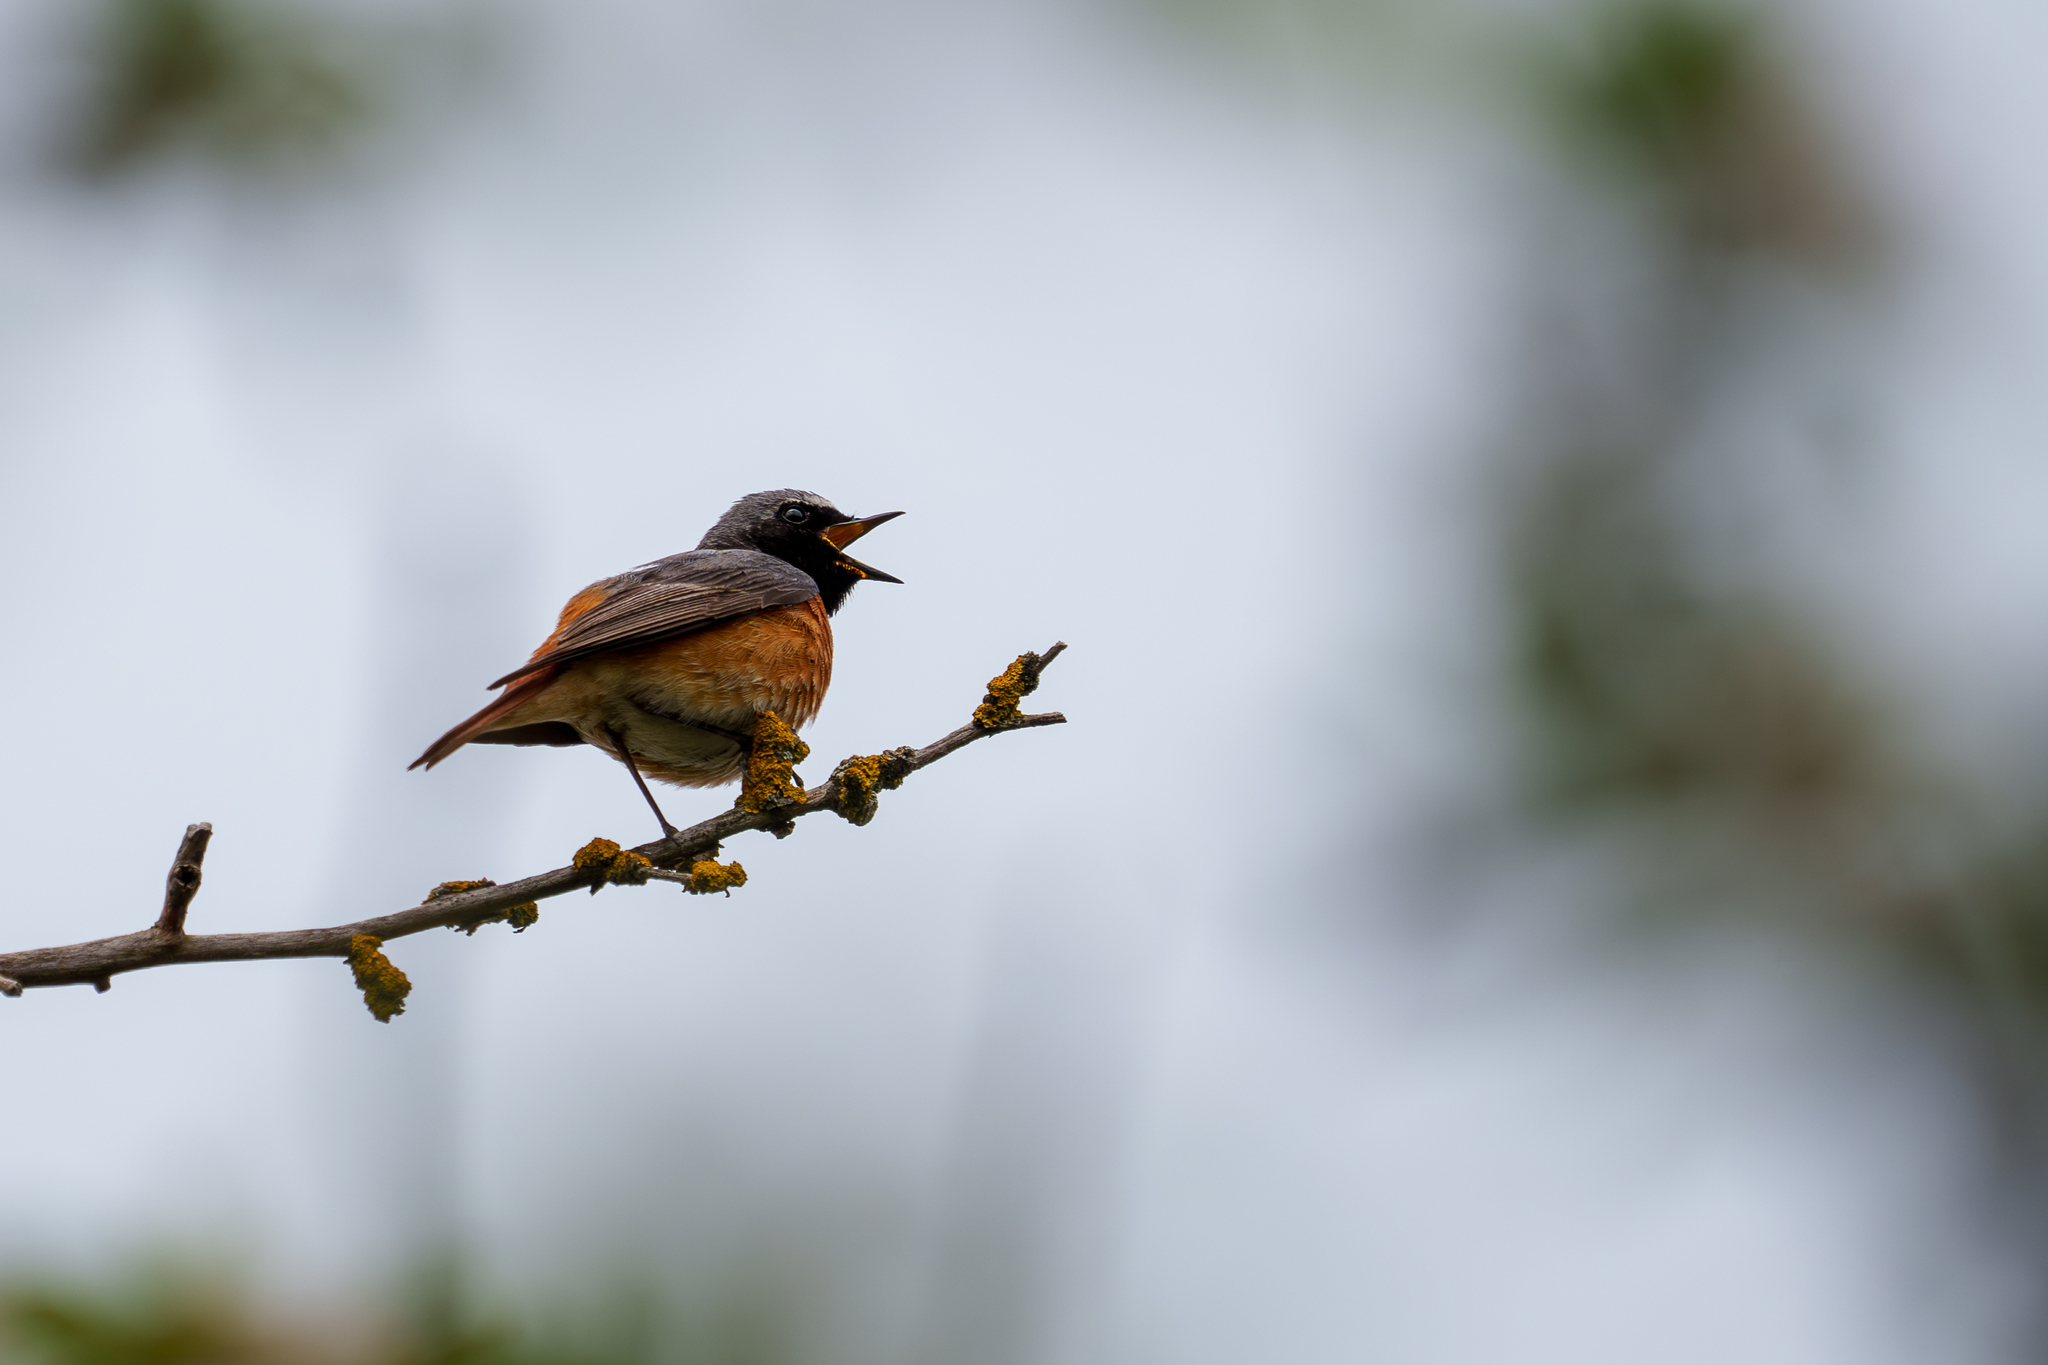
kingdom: Animalia
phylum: Chordata
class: Aves
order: Passeriformes
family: Muscicapidae
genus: Phoenicurus
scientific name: Phoenicurus phoenicurus
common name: Common redstart
